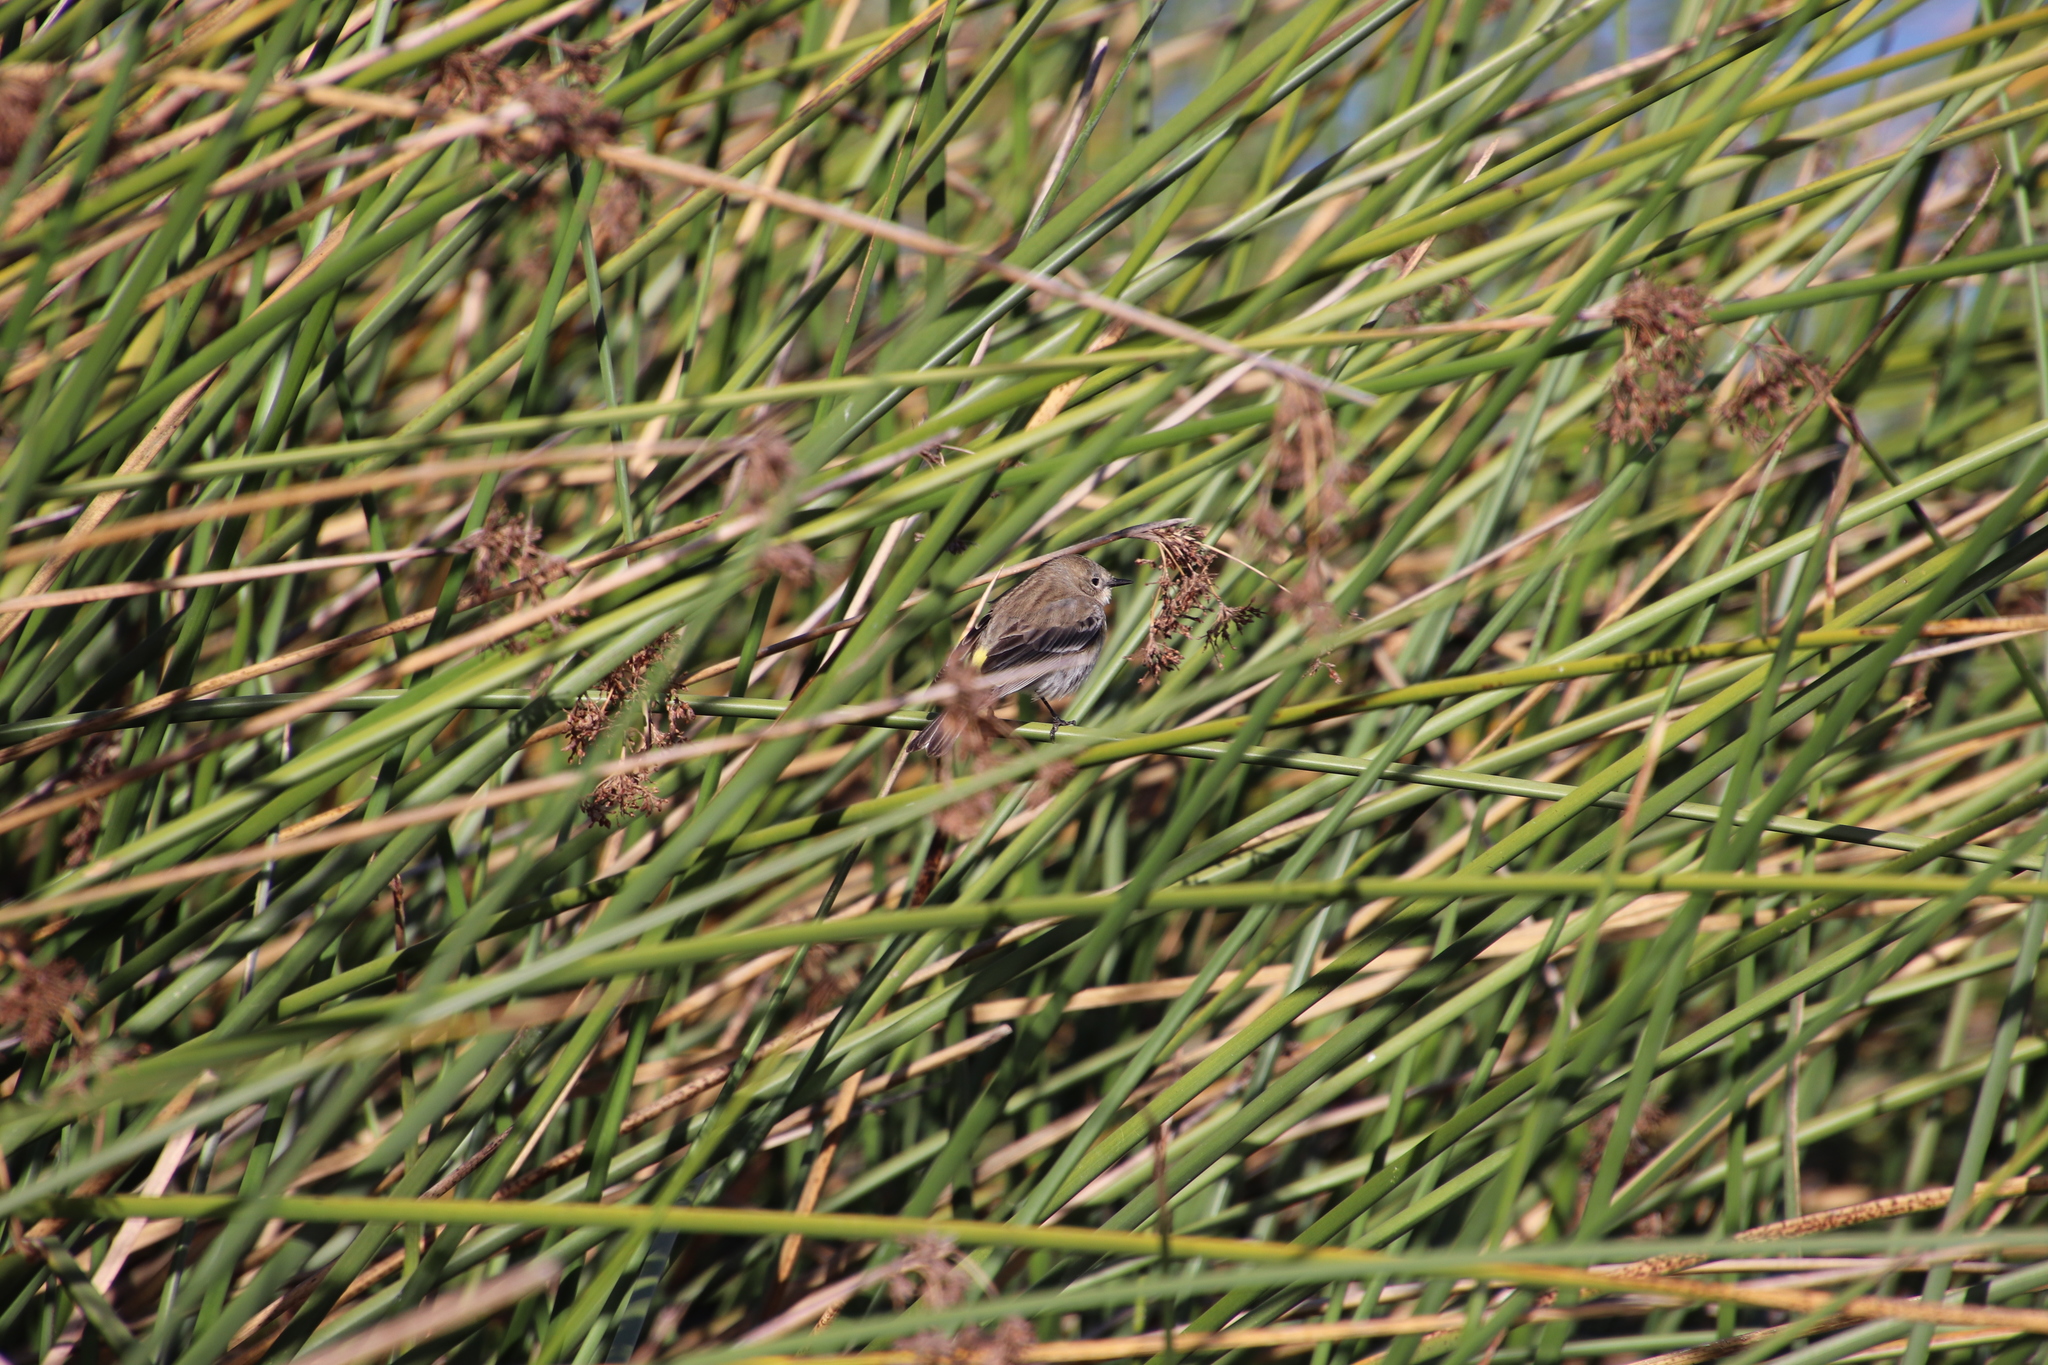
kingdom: Animalia
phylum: Chordata
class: Aves
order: Passeriformes
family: Parulidae
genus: Setophaga
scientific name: Setophaga coronata
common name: Myrtle warbler
